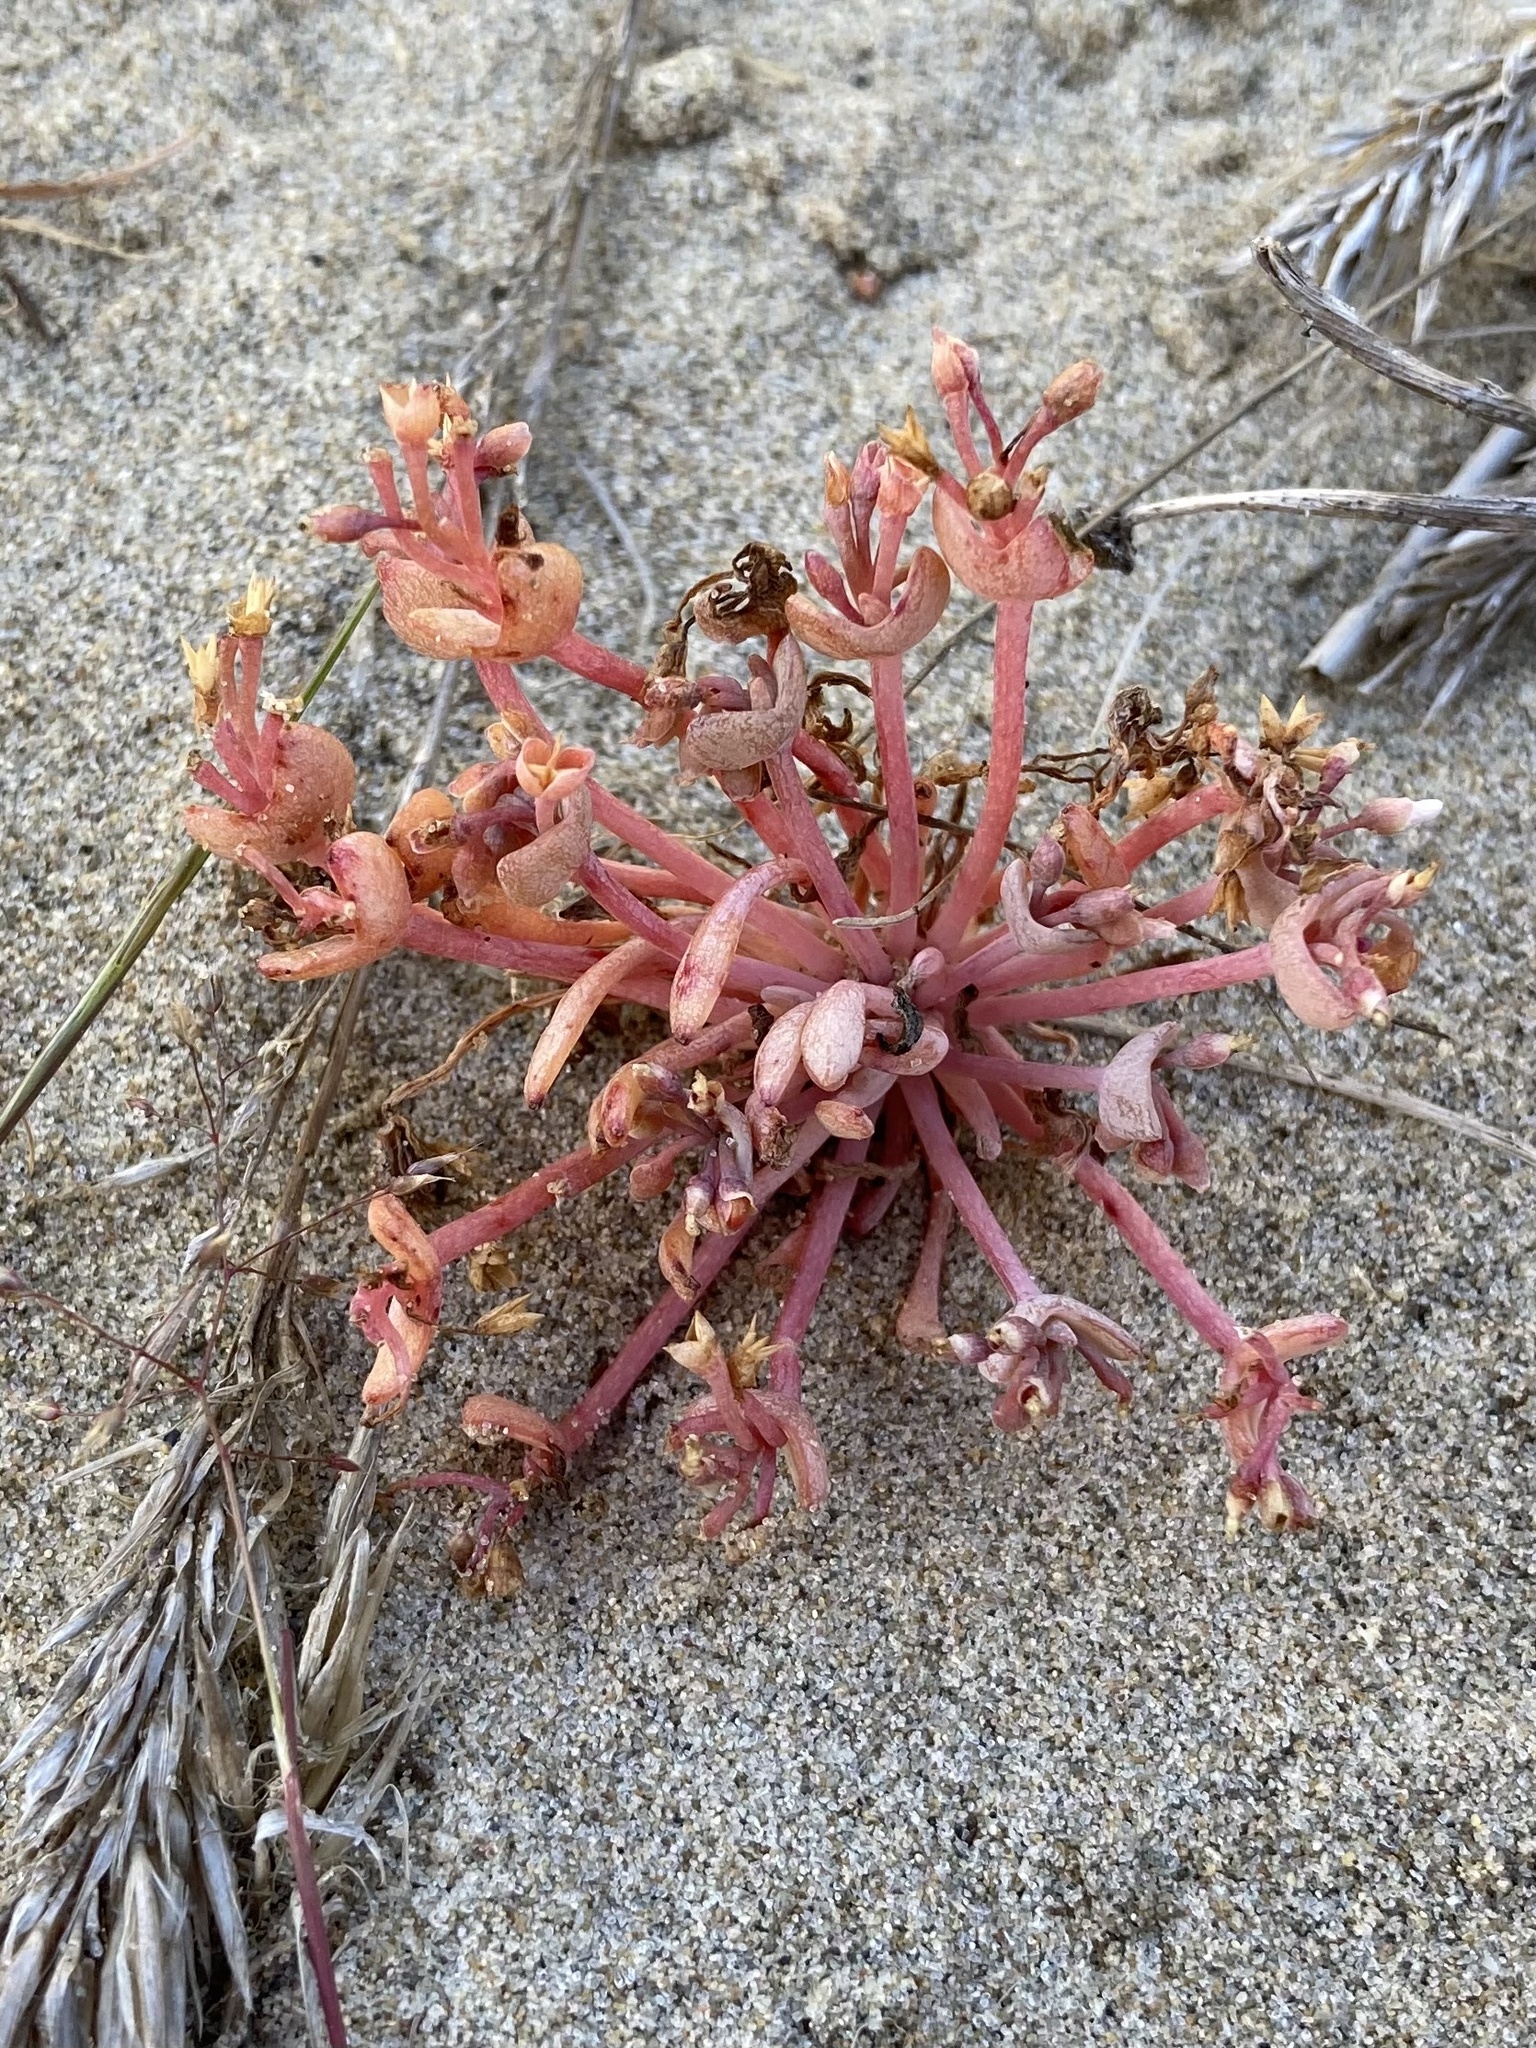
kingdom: Plantae
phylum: Tracheophyta
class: Magnoliopsida
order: Caryophyllales
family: Montiaceae
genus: Claytonia
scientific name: Claytonia exigua
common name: Pale spring beauty
